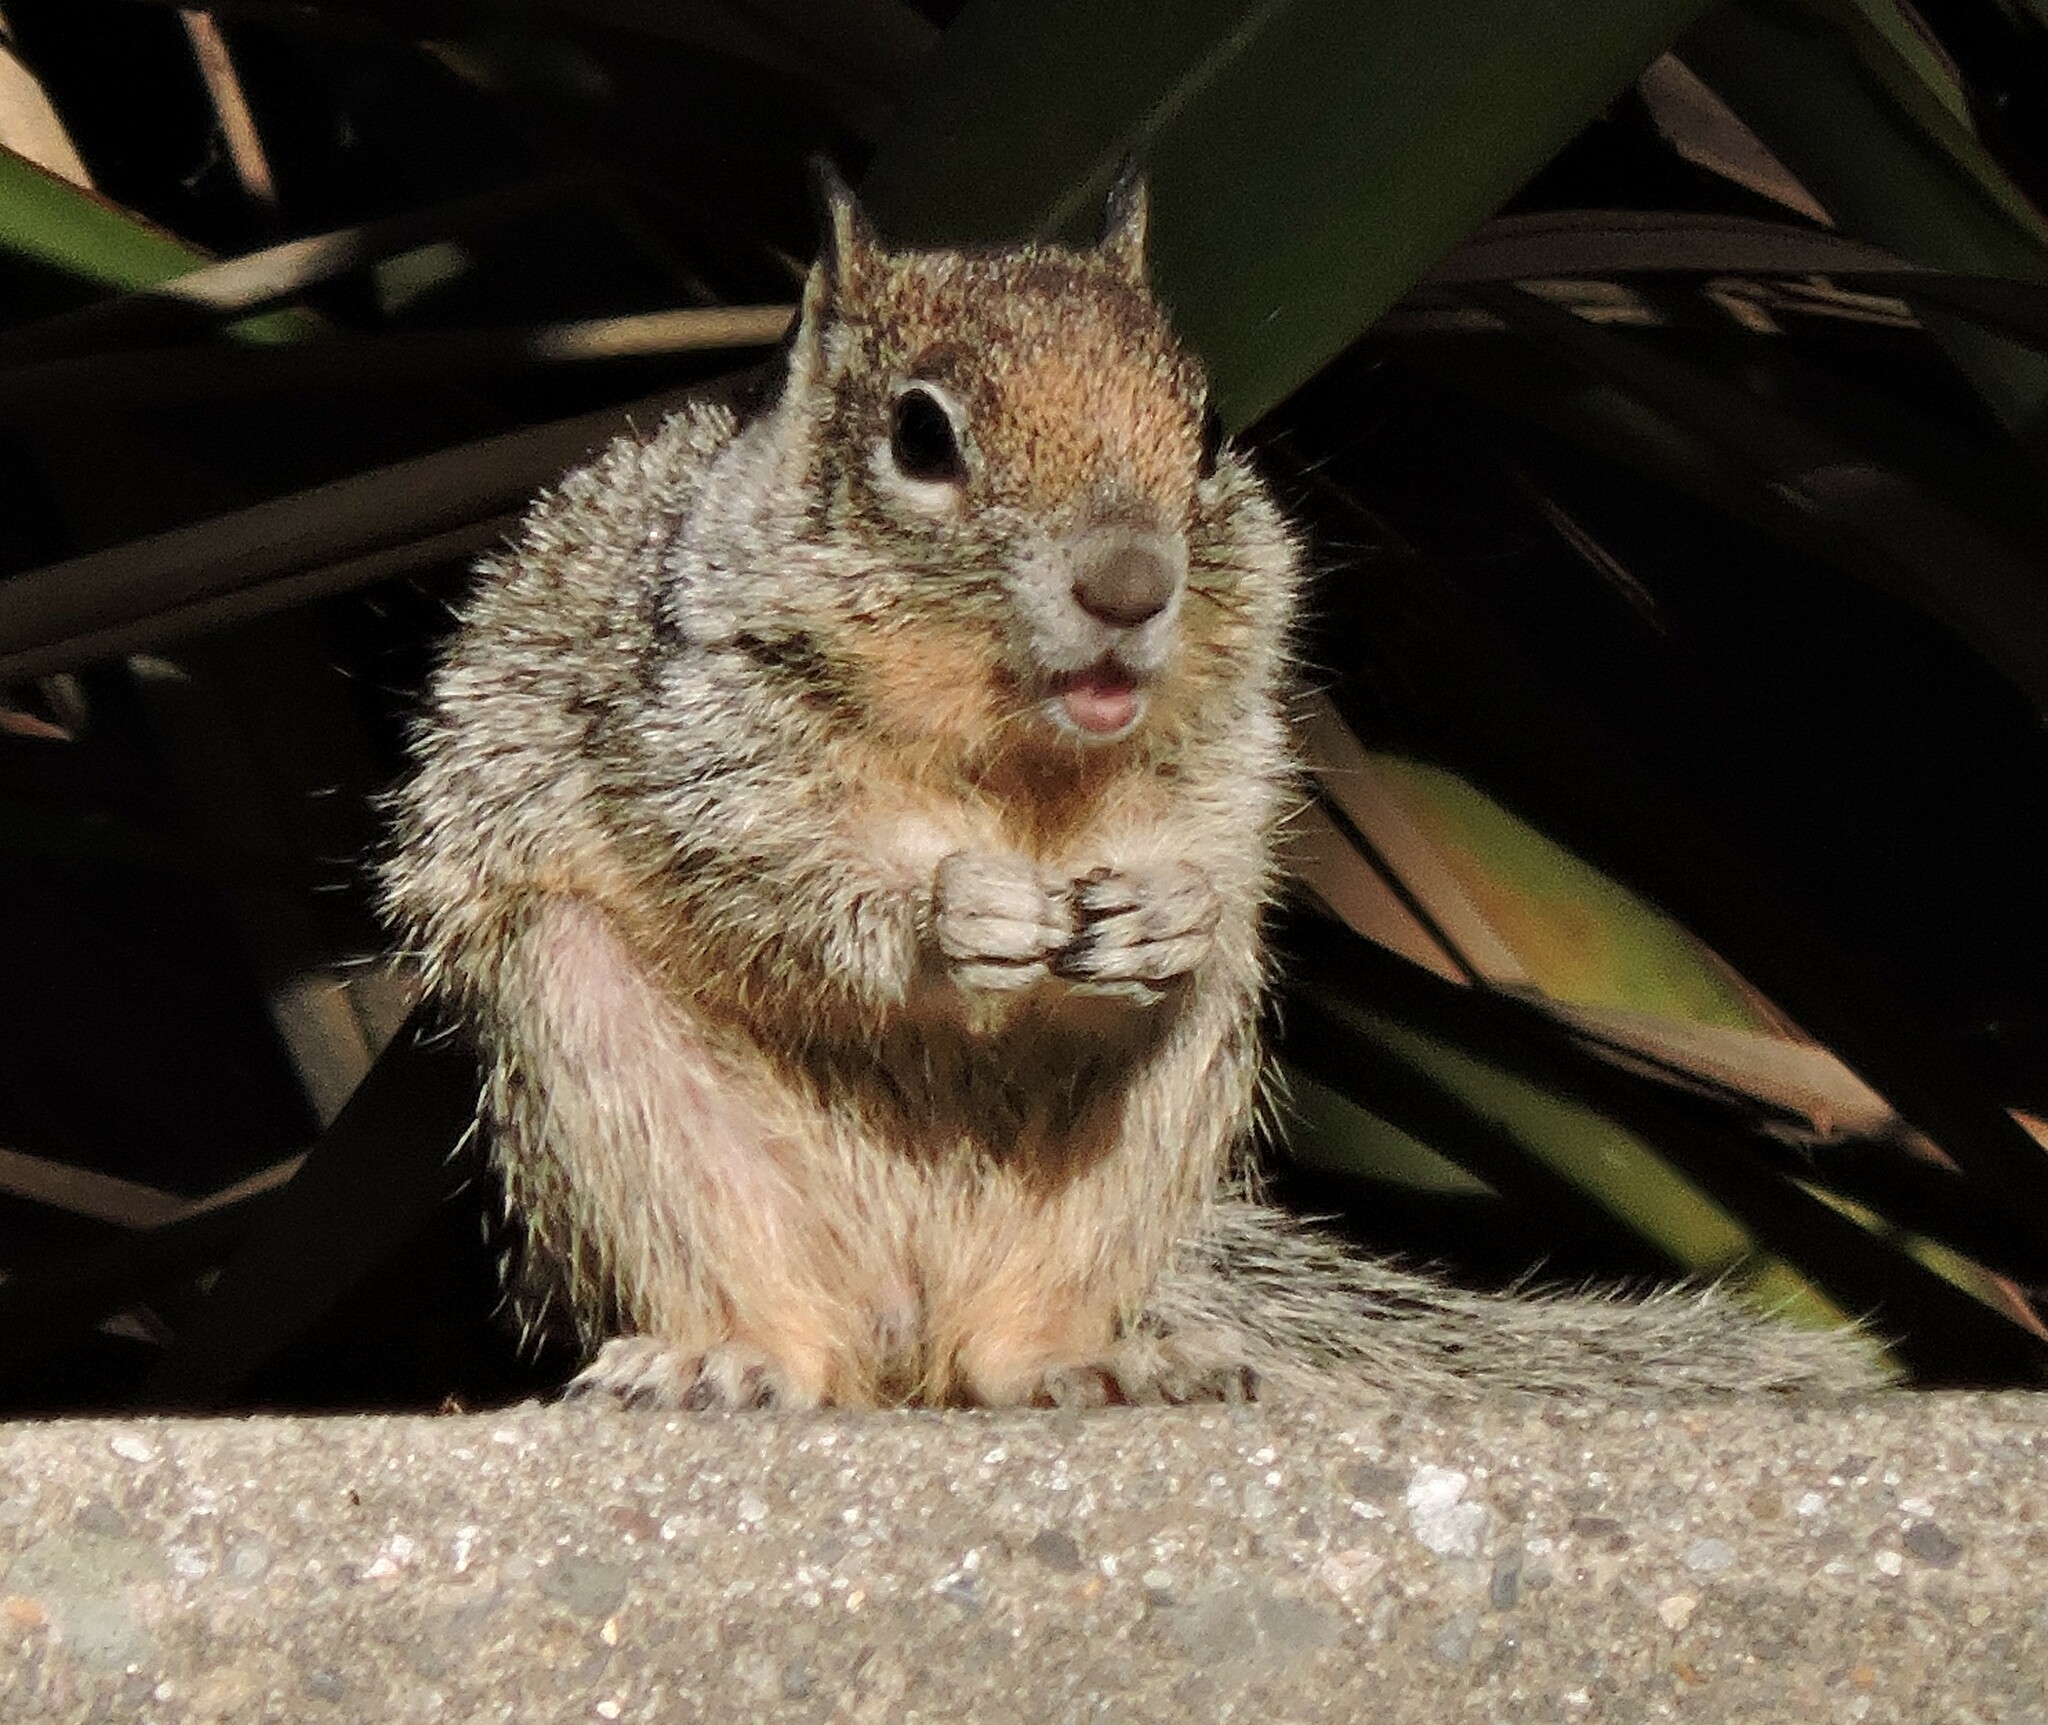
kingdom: Animalia
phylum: Chordata
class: Mammalia
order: Rodentia
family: Sciuridae
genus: Otospermophilus
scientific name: Otospermophilus beecheyi
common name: California ground squirrel
